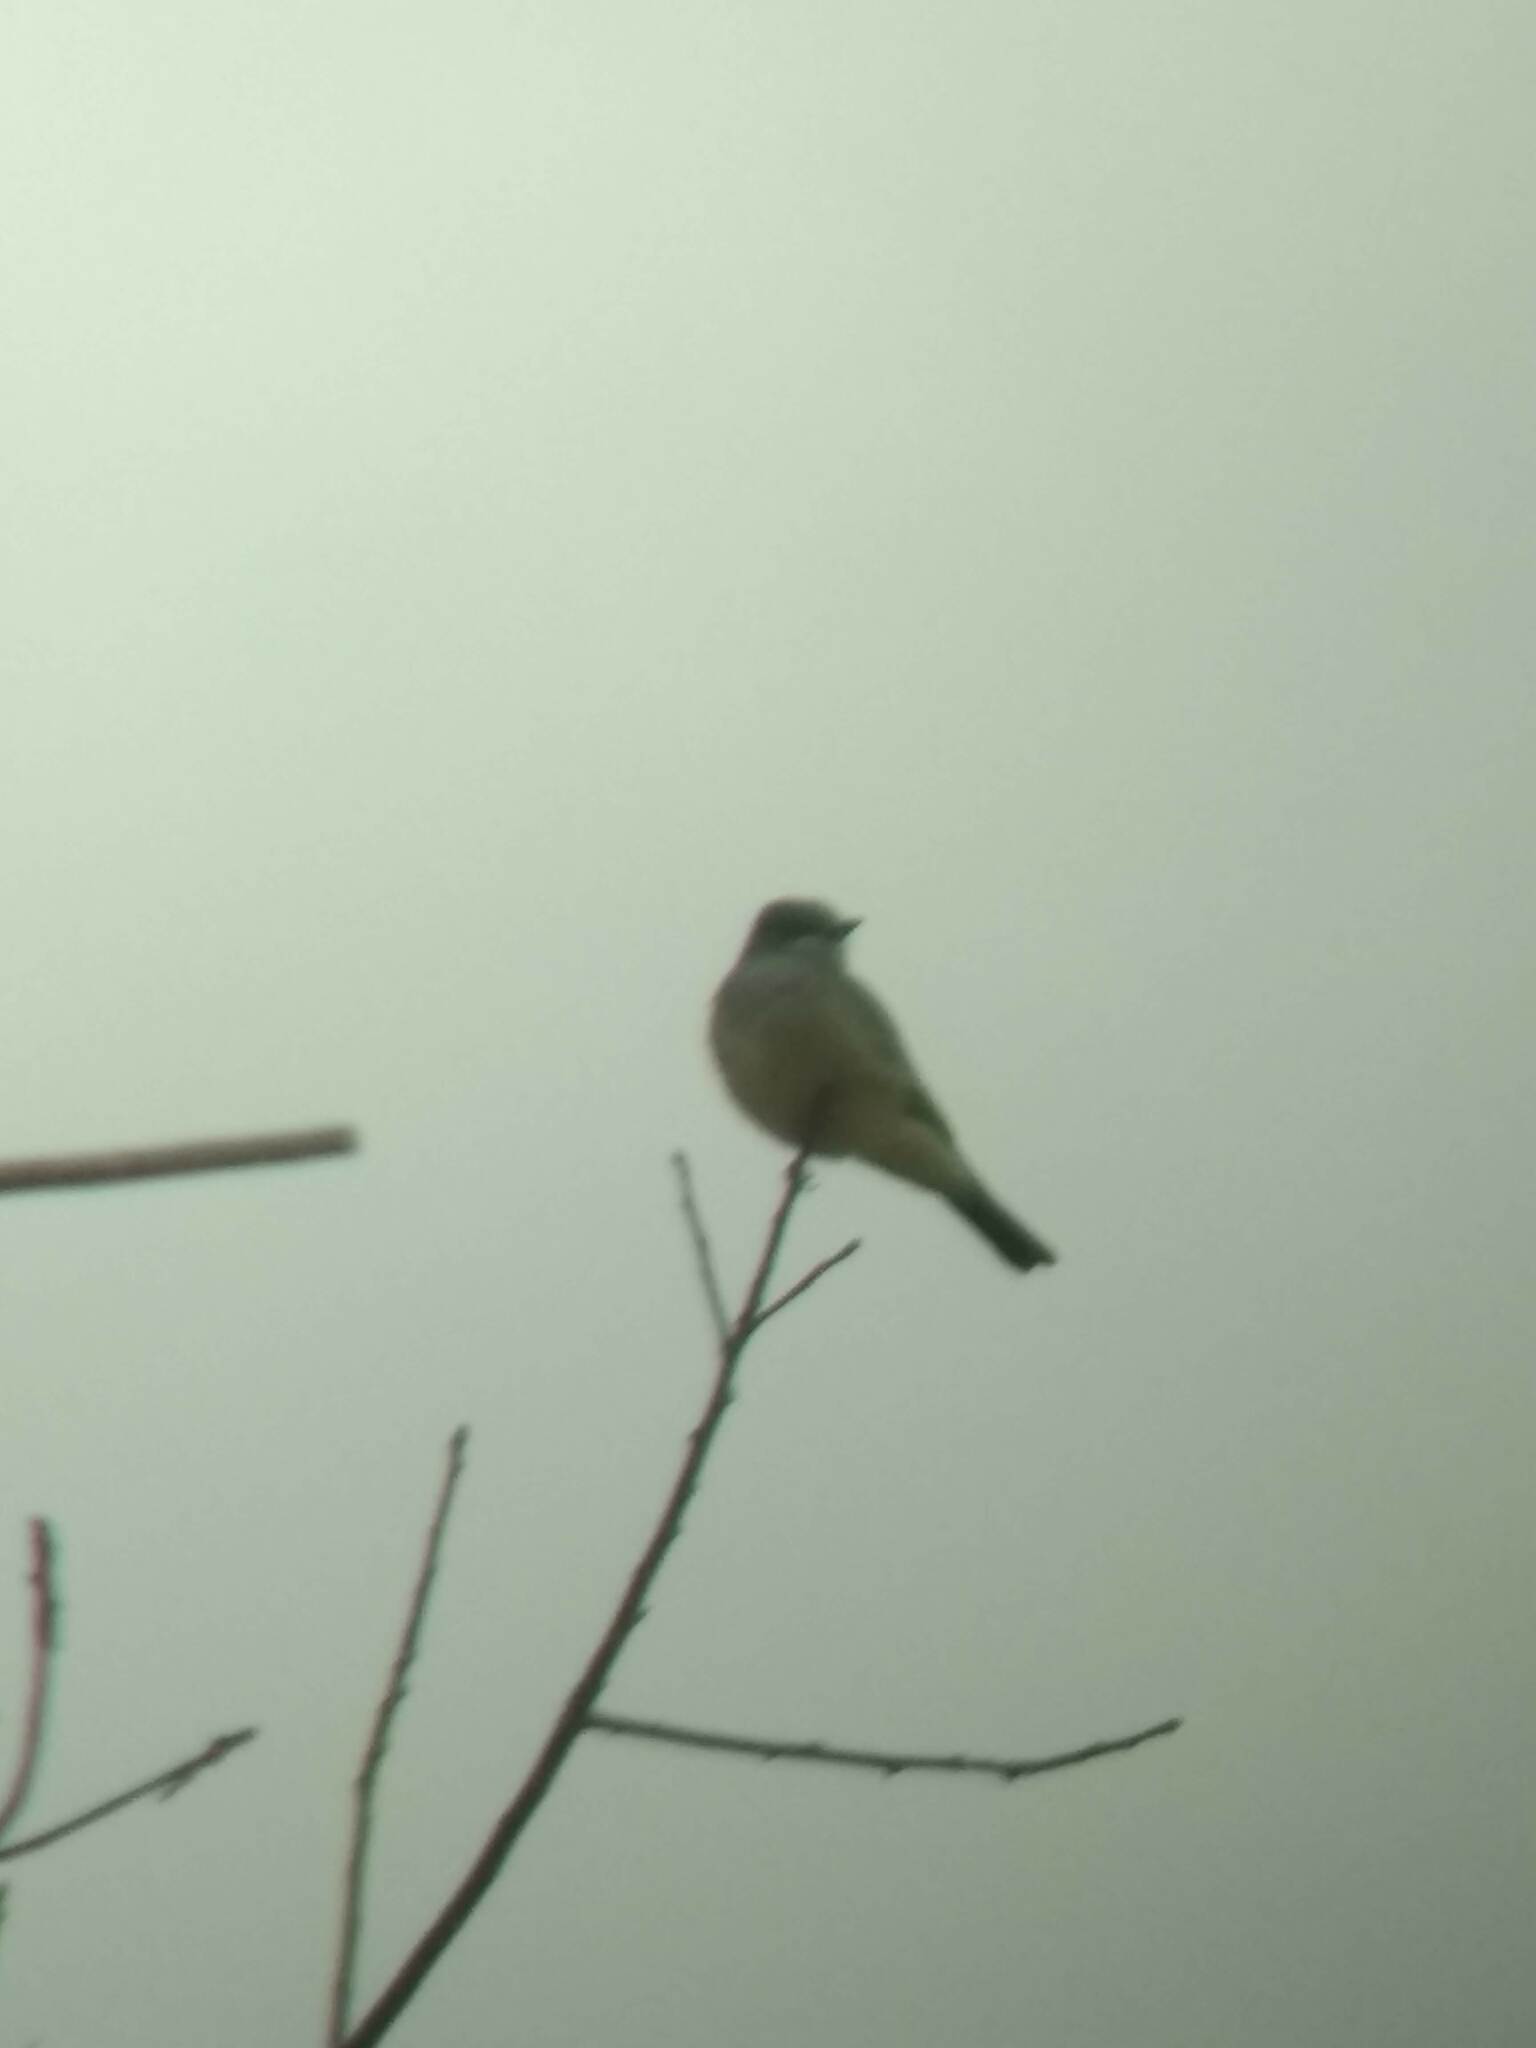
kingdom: Animalia
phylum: Chordata
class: Aves
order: Passeriformes
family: Tyrannidae
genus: Tyrannus
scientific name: Tyrannus vociferans
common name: Cassin's kingbird
